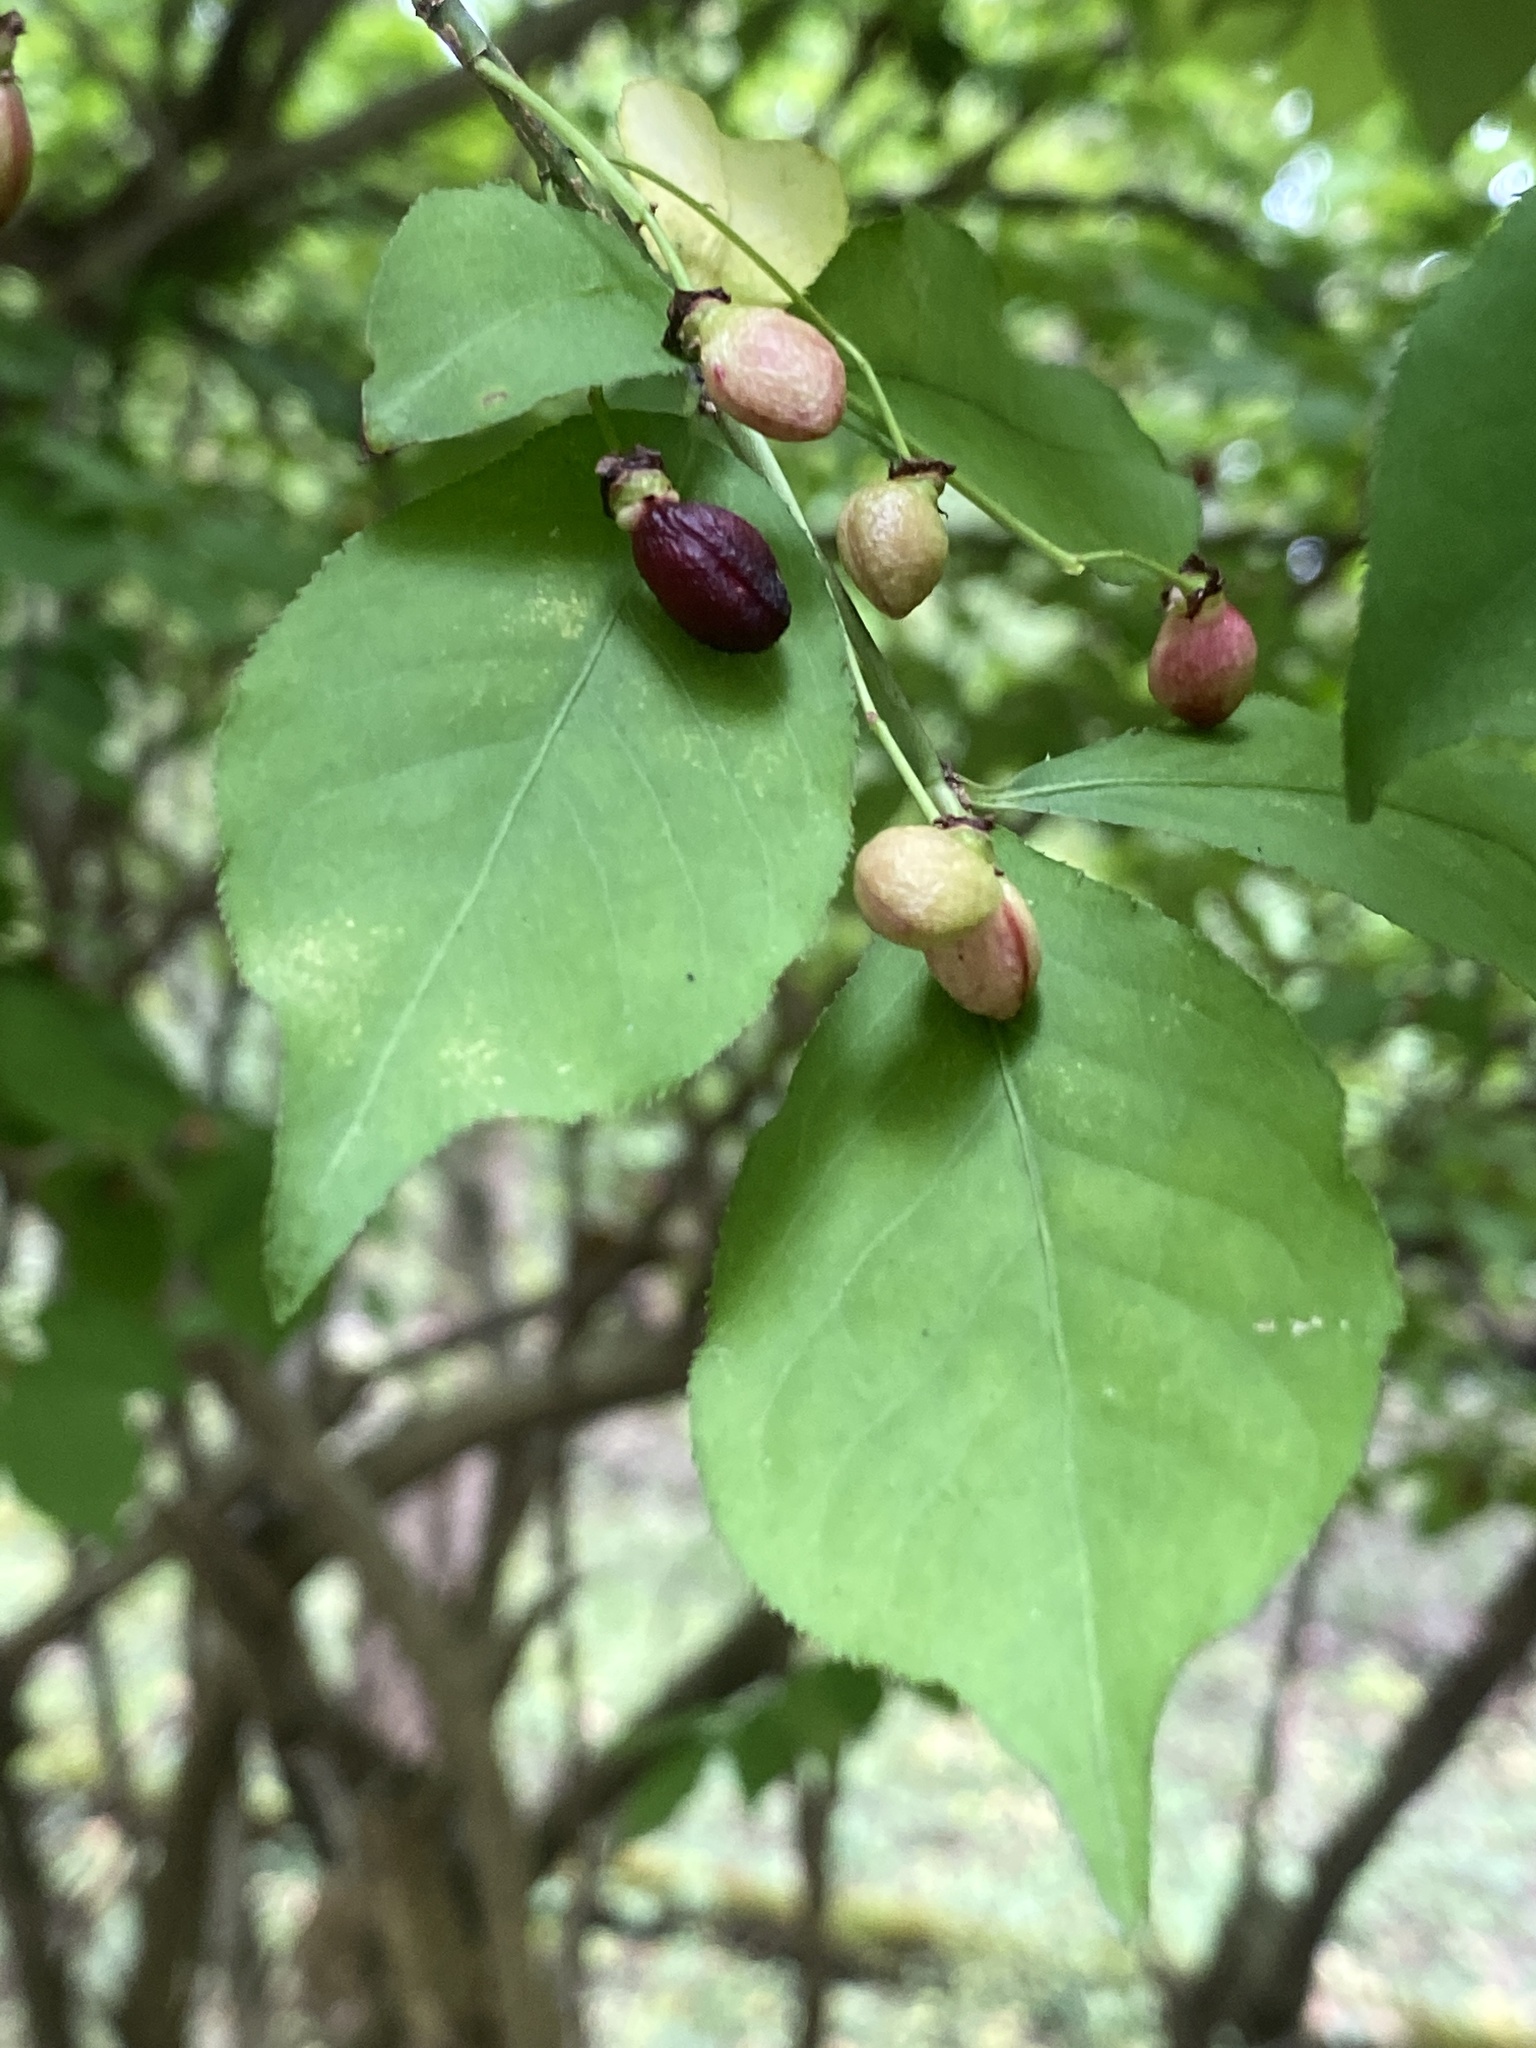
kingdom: Plantae
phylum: Tracheophyta
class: Magnoliopsida
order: Celastrales
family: Celastraceae
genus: Euonymus
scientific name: Euonymus alatus
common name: Winged euonymus
